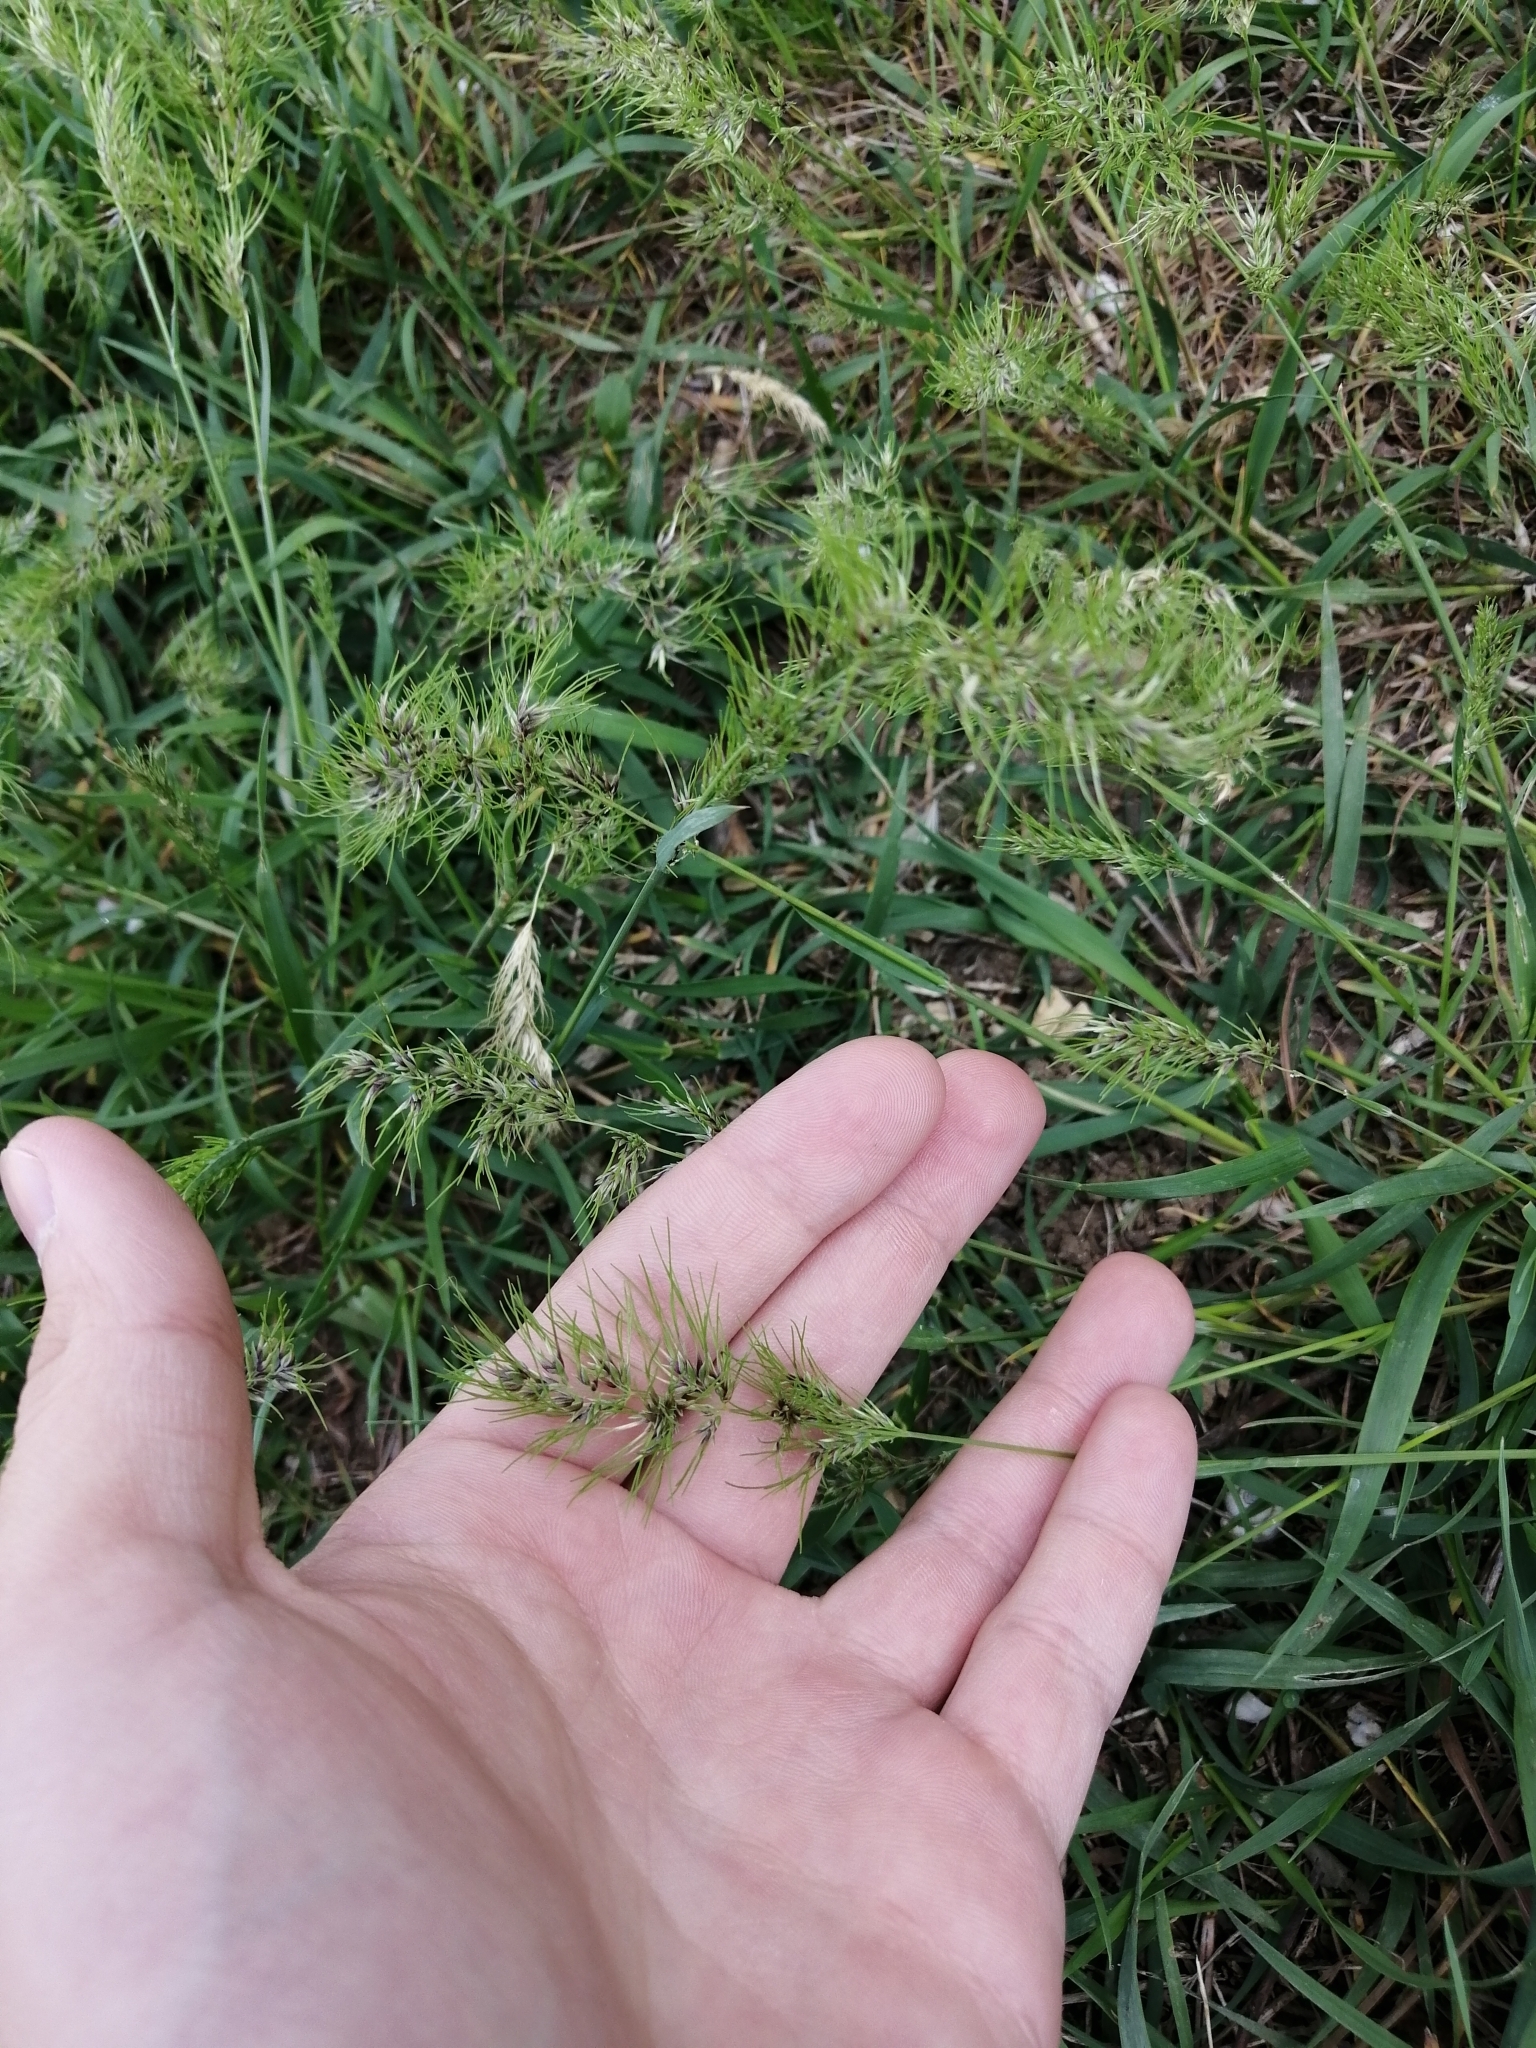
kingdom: Plantae
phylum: Tracheophyta
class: Liliopsida
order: Poales
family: Poaceae
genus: Poa
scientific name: Poa bulbosa
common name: Bulbous bluegrass
